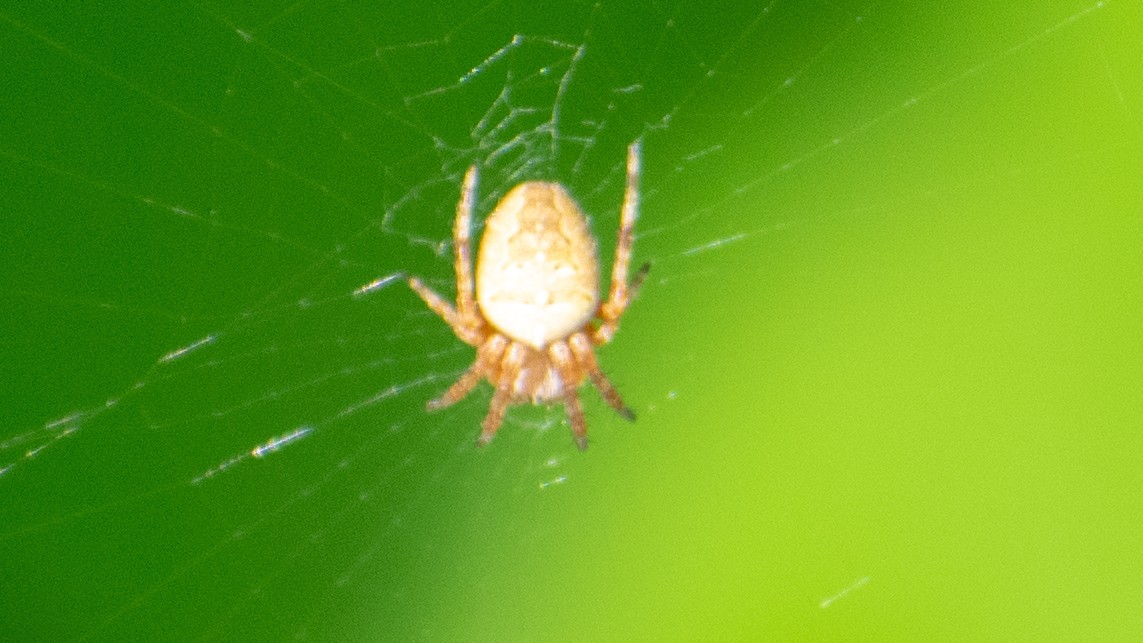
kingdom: Animalia
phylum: Arthropoda
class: Arachnida
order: Araneae
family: Araneidae
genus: Araneus
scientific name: Araneus diadematus
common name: Cross orbweaver
